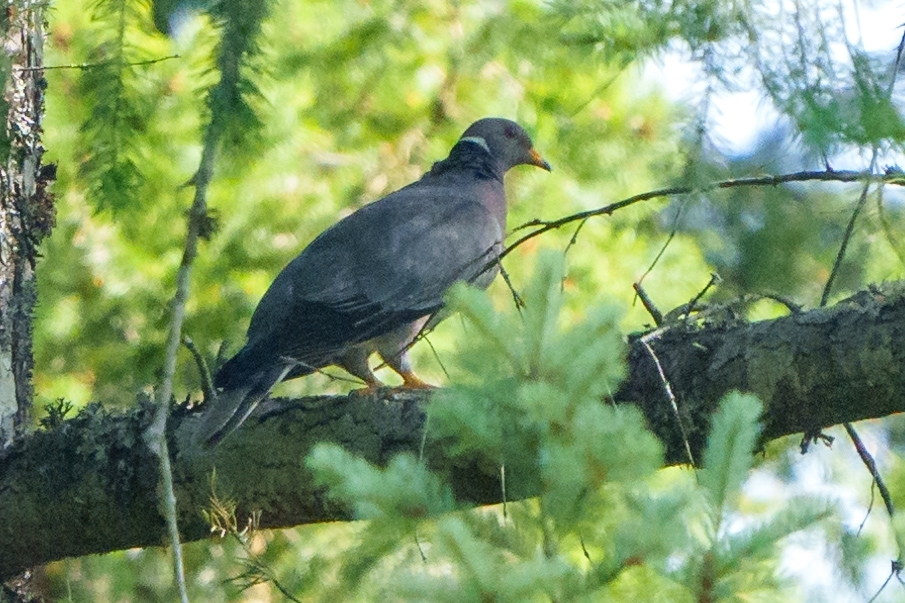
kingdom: Animalia
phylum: Chordata
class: Aves
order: Columbiformes
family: Columbidae
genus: Patagioenas
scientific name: Patagioenas fasciata
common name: Band-tailed pigeon
